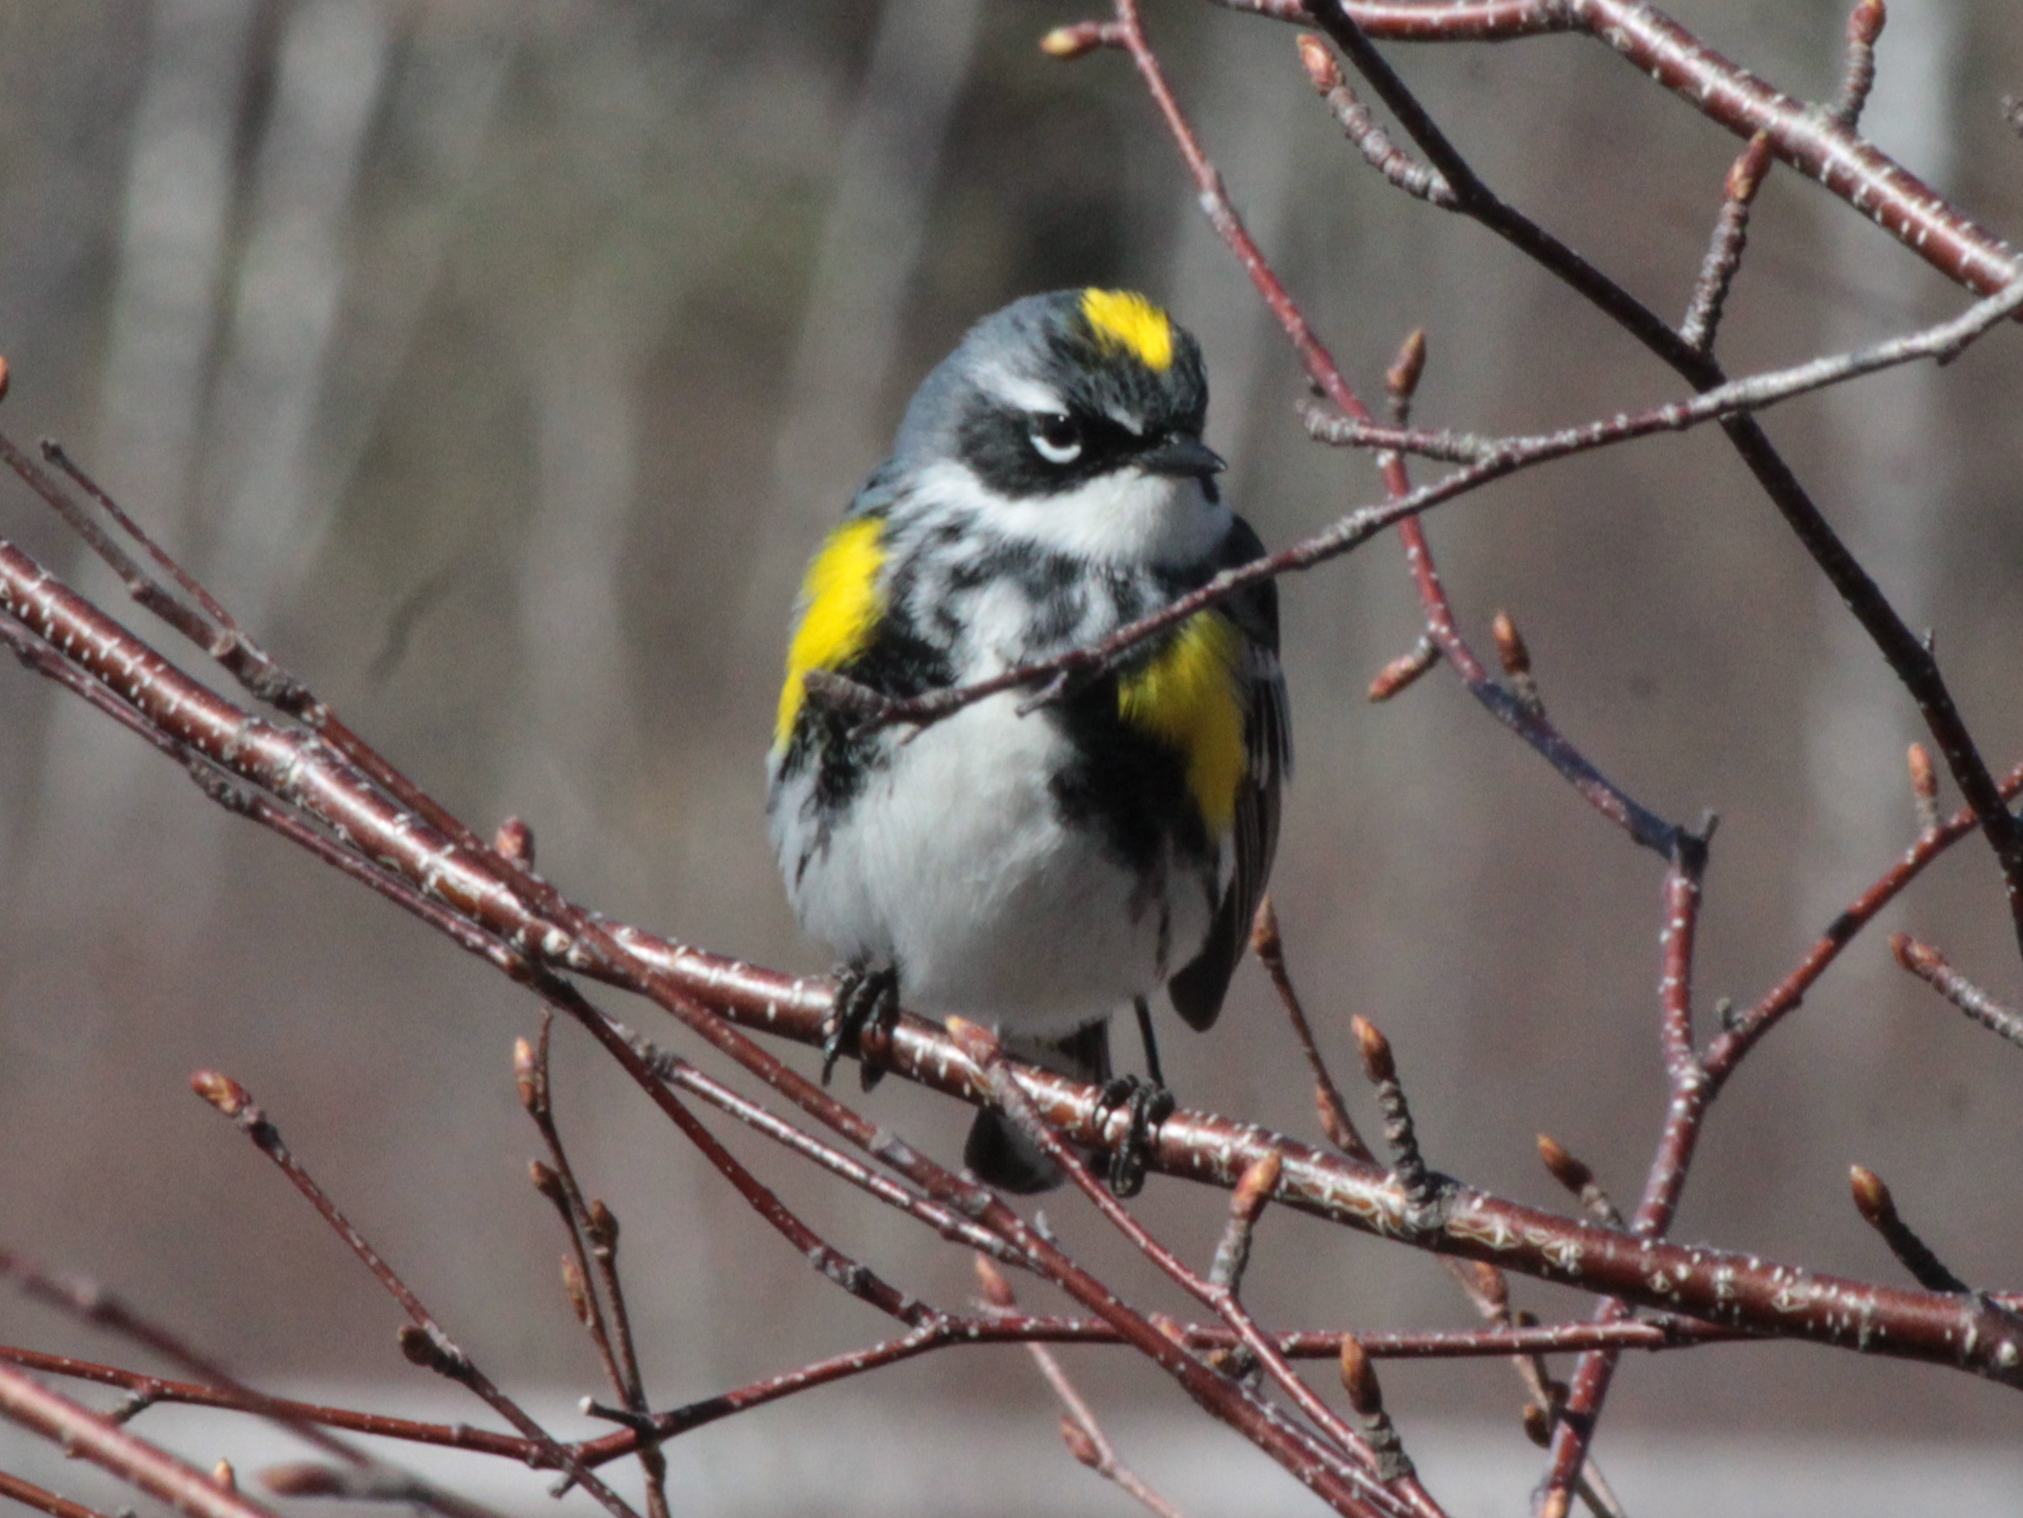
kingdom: Animalia
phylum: Chordata
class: Aves
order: Passeriformes
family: Parulidae
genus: Setophaga
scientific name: Setophaga coronata
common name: Myrtle warbler
